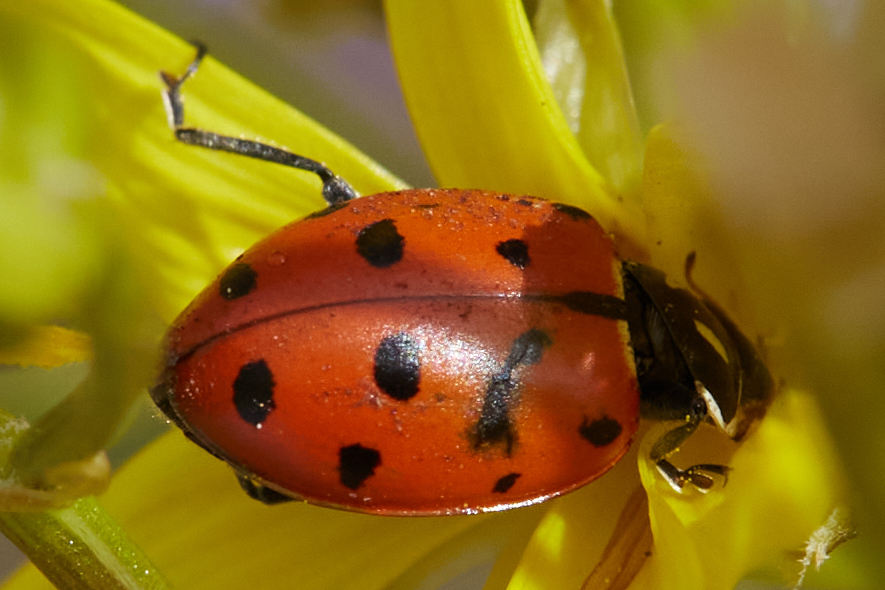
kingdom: Animalia
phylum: Arthropoda
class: Insecta
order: Coleoptera
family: Coccinellidae
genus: Hippodamia
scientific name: Hippodamia convergens
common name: Convergent lady beetle
